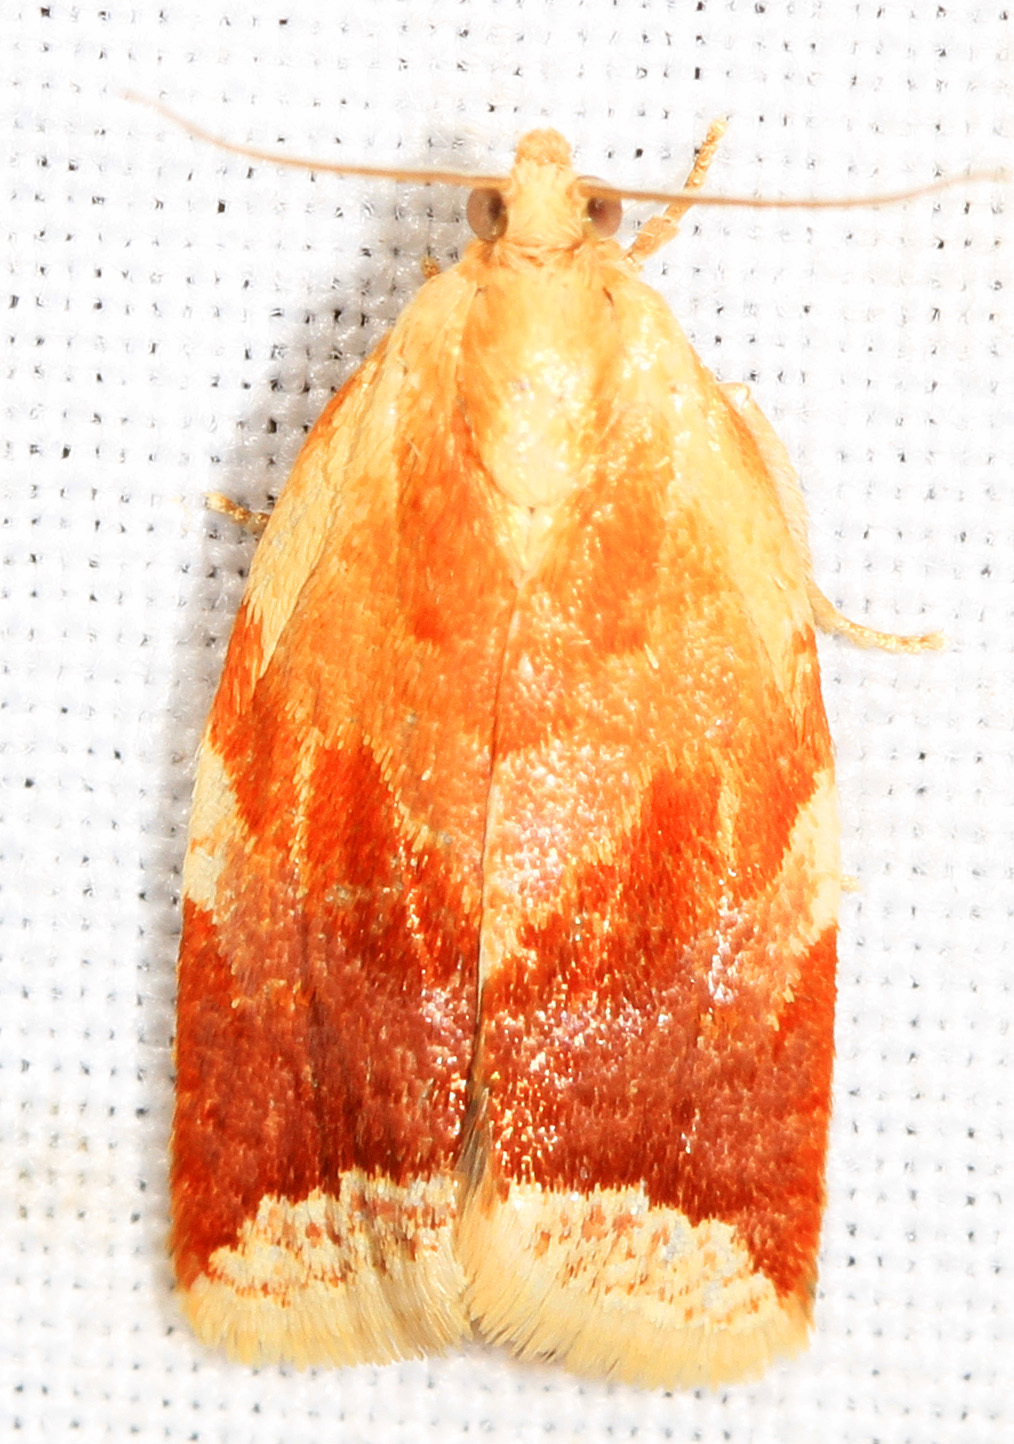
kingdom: Animalia
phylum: Arthropoda
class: Insecta
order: Lepidoptera
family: Tortricidae
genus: Clepsis
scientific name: Clepsis persicana
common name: White triangle tortrix
